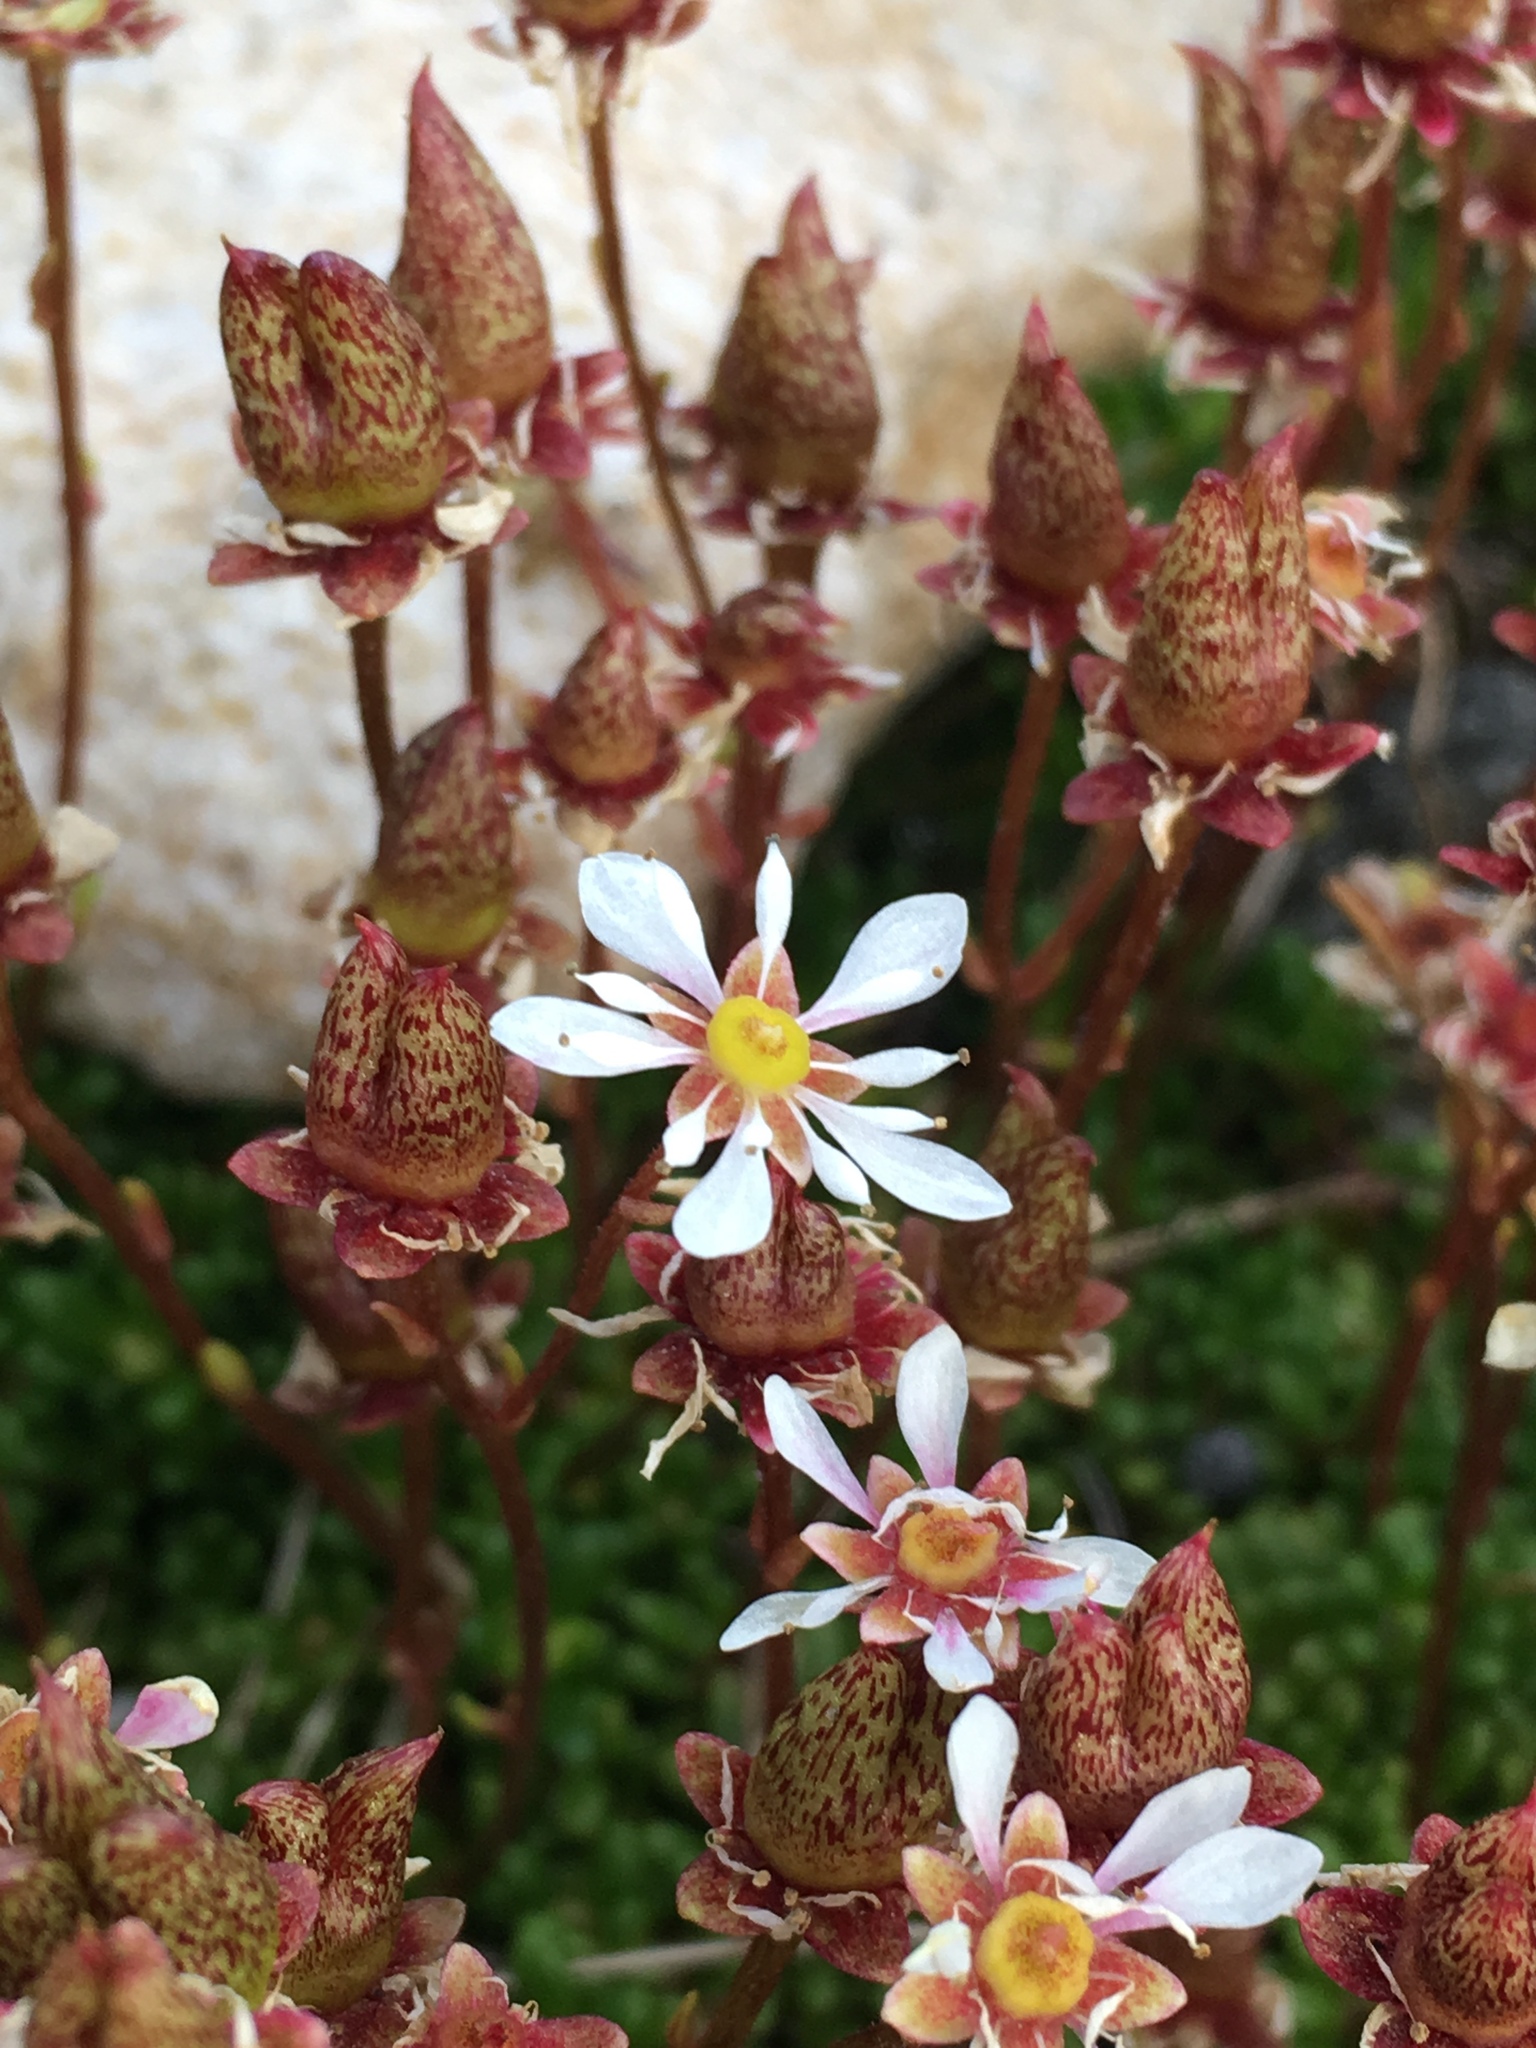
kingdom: Plantae
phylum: Tracheophyta
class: Magnoliopsida
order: Saxifragales
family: Saxifragaceae
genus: Micranthes
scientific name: Micranthes tolmiei
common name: Tolmie's saxifrage
